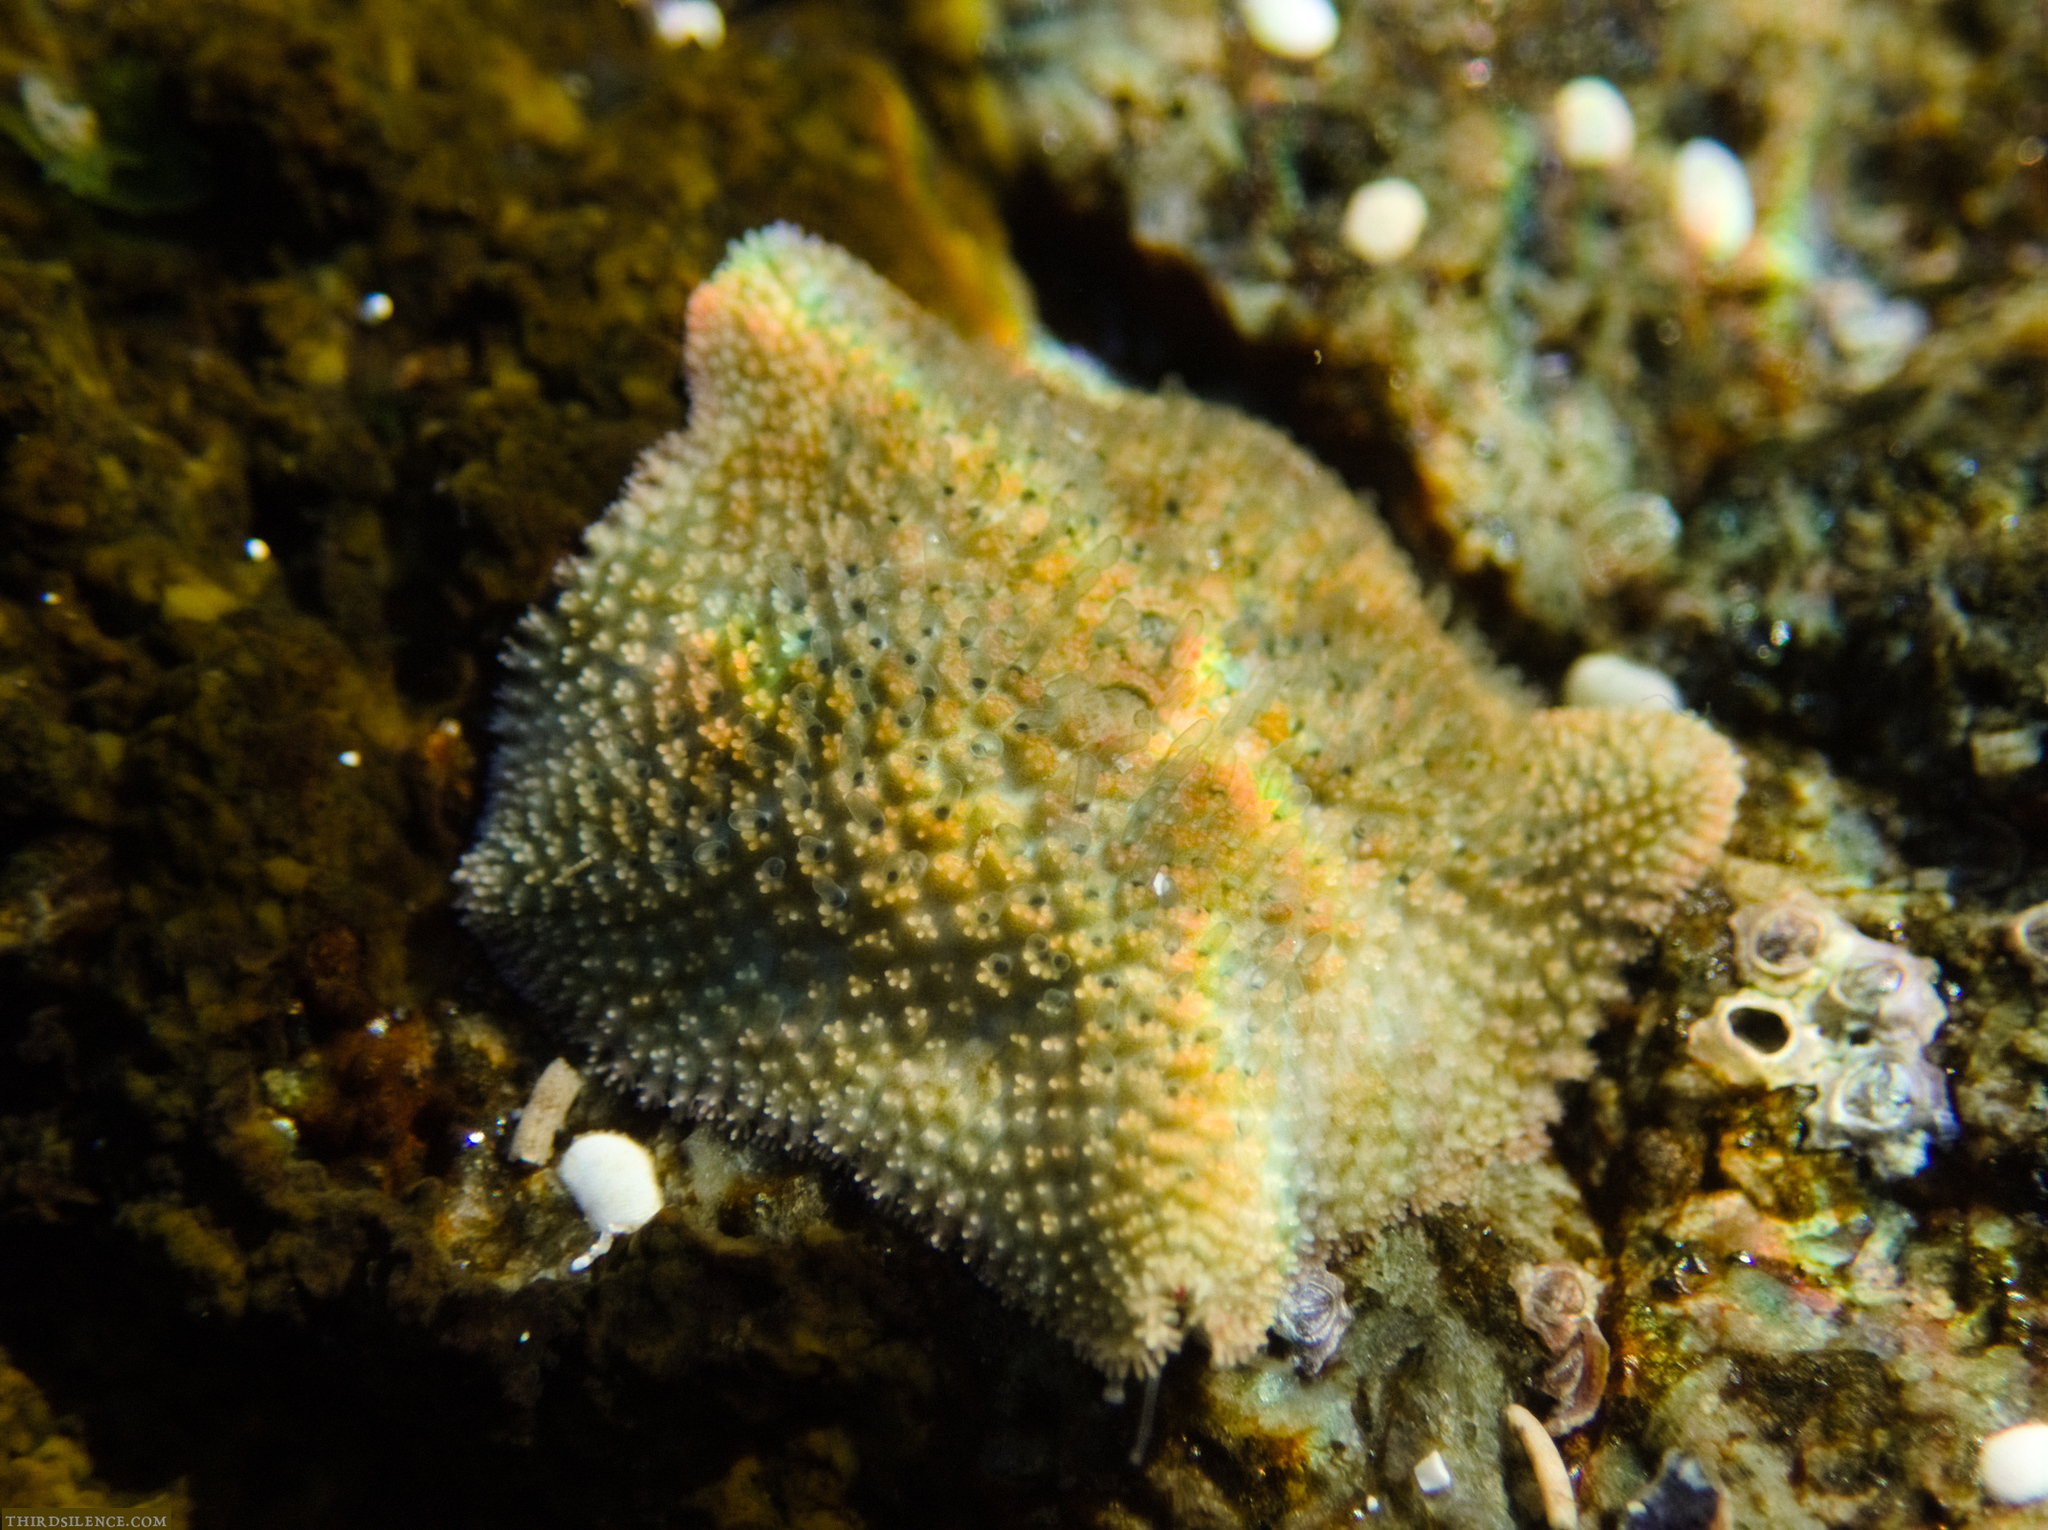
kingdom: Animalia
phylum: Echinodermata
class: Asteroidea
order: Valvatida
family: Asterinidae
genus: Parvulastra
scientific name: Parvulastra exigua
